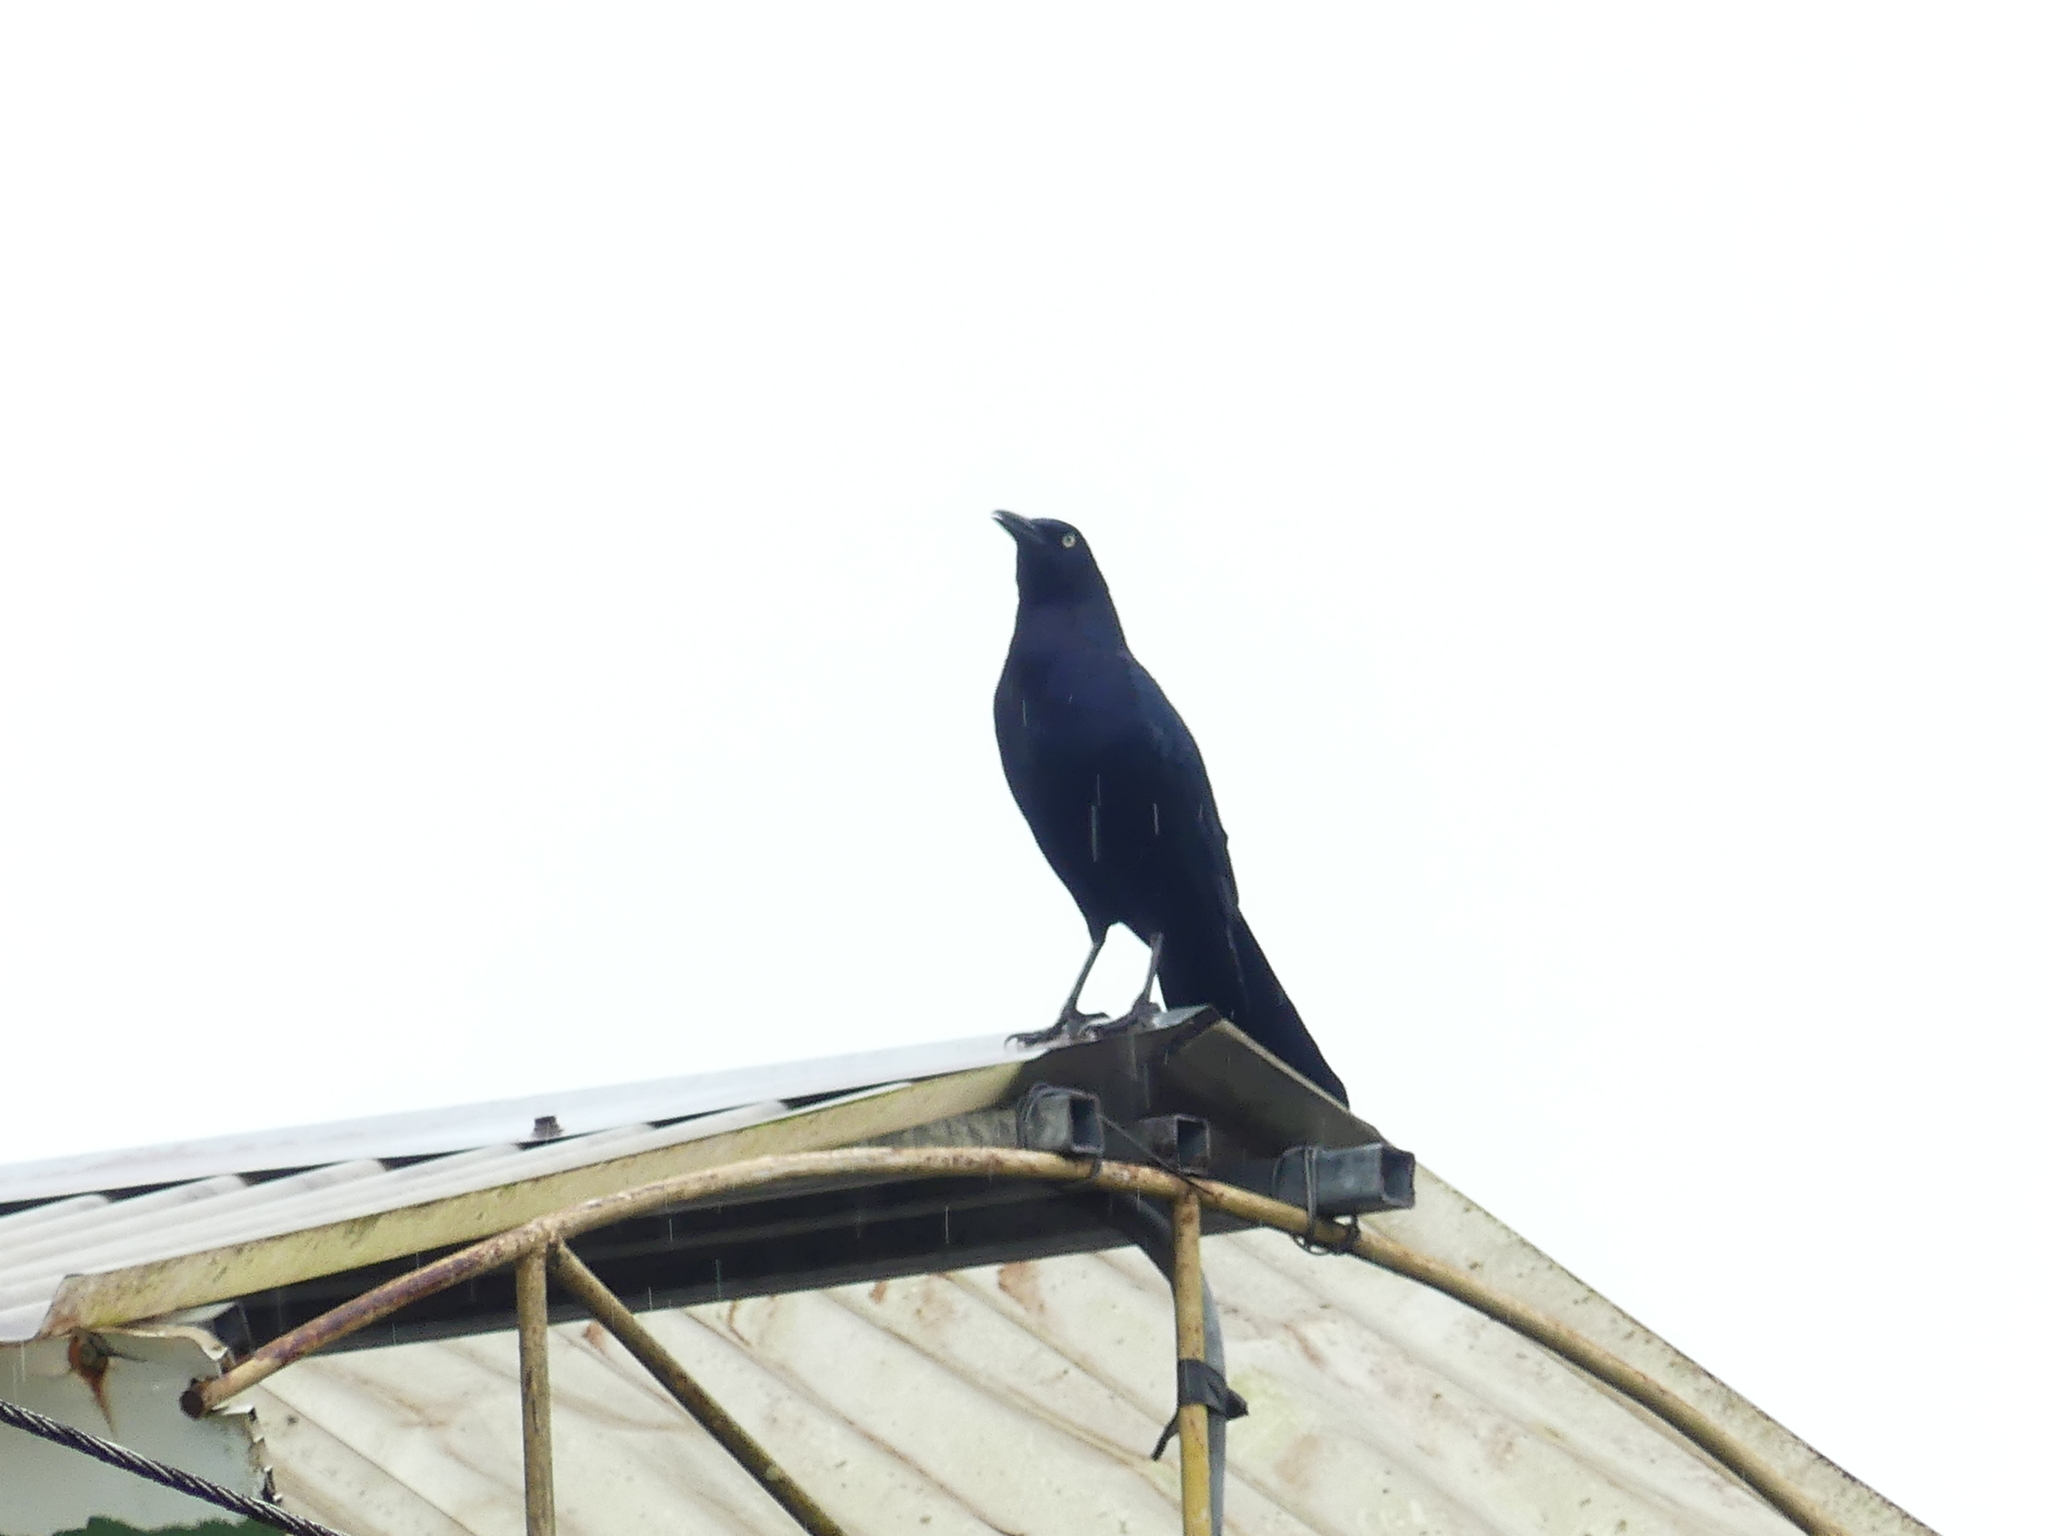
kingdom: Animalia
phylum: Chordata
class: Aves
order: Passeriformes
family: Icteridae
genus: Quiscalus
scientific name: Quiscalus mexicanus
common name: Great-tailed grackle
